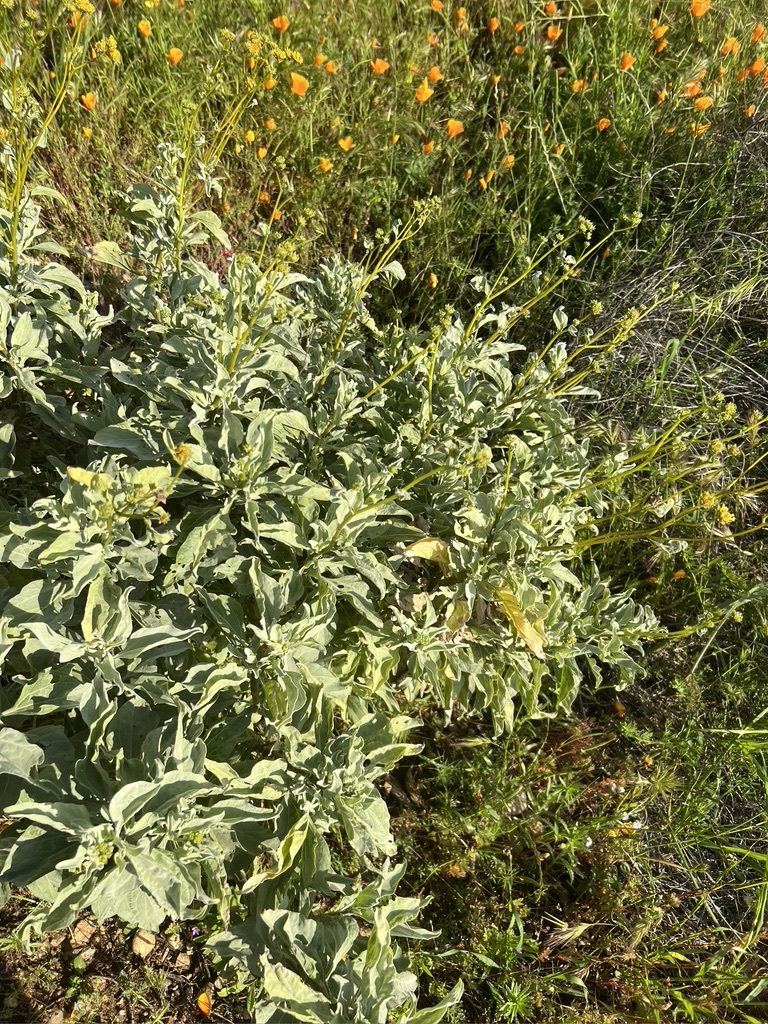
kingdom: Plantae
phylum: Tracheophyta
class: Magnoliopsida
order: Asterales
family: Asteraceae
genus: Encelia
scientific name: Encelia farinosa
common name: Brittlebush
